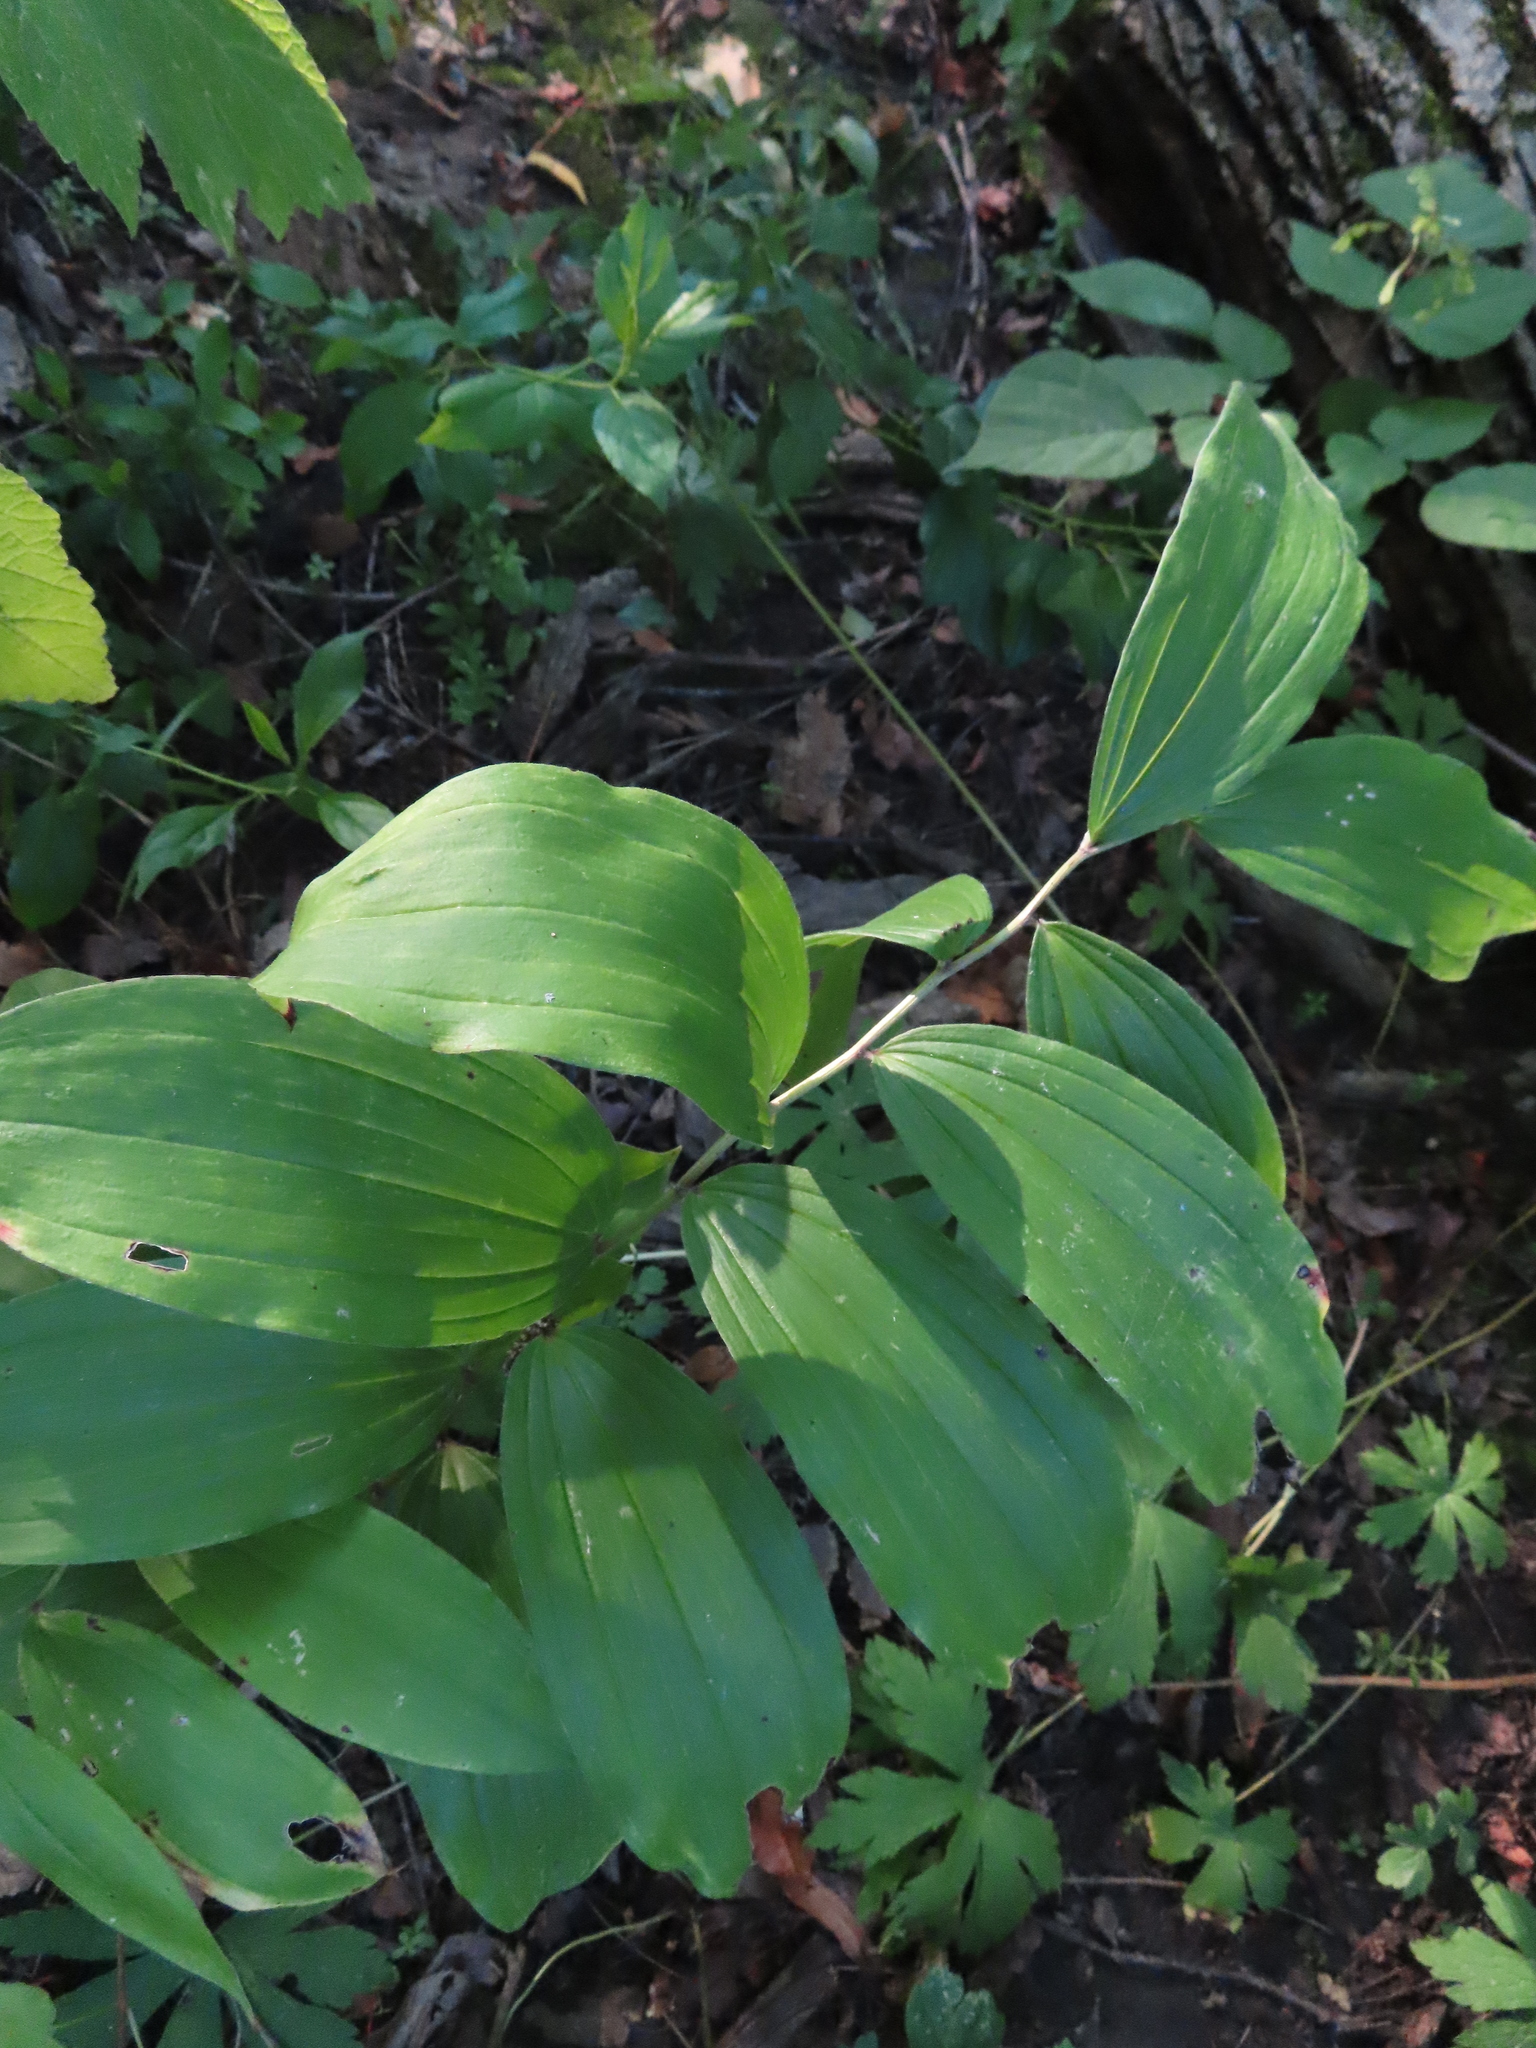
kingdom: Plantae
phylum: Tracheophyta
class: Liliopsida
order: Asparagales
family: Asparagaceae
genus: Maianthemum
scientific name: Maianthemum racemosum
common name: False spikenard
